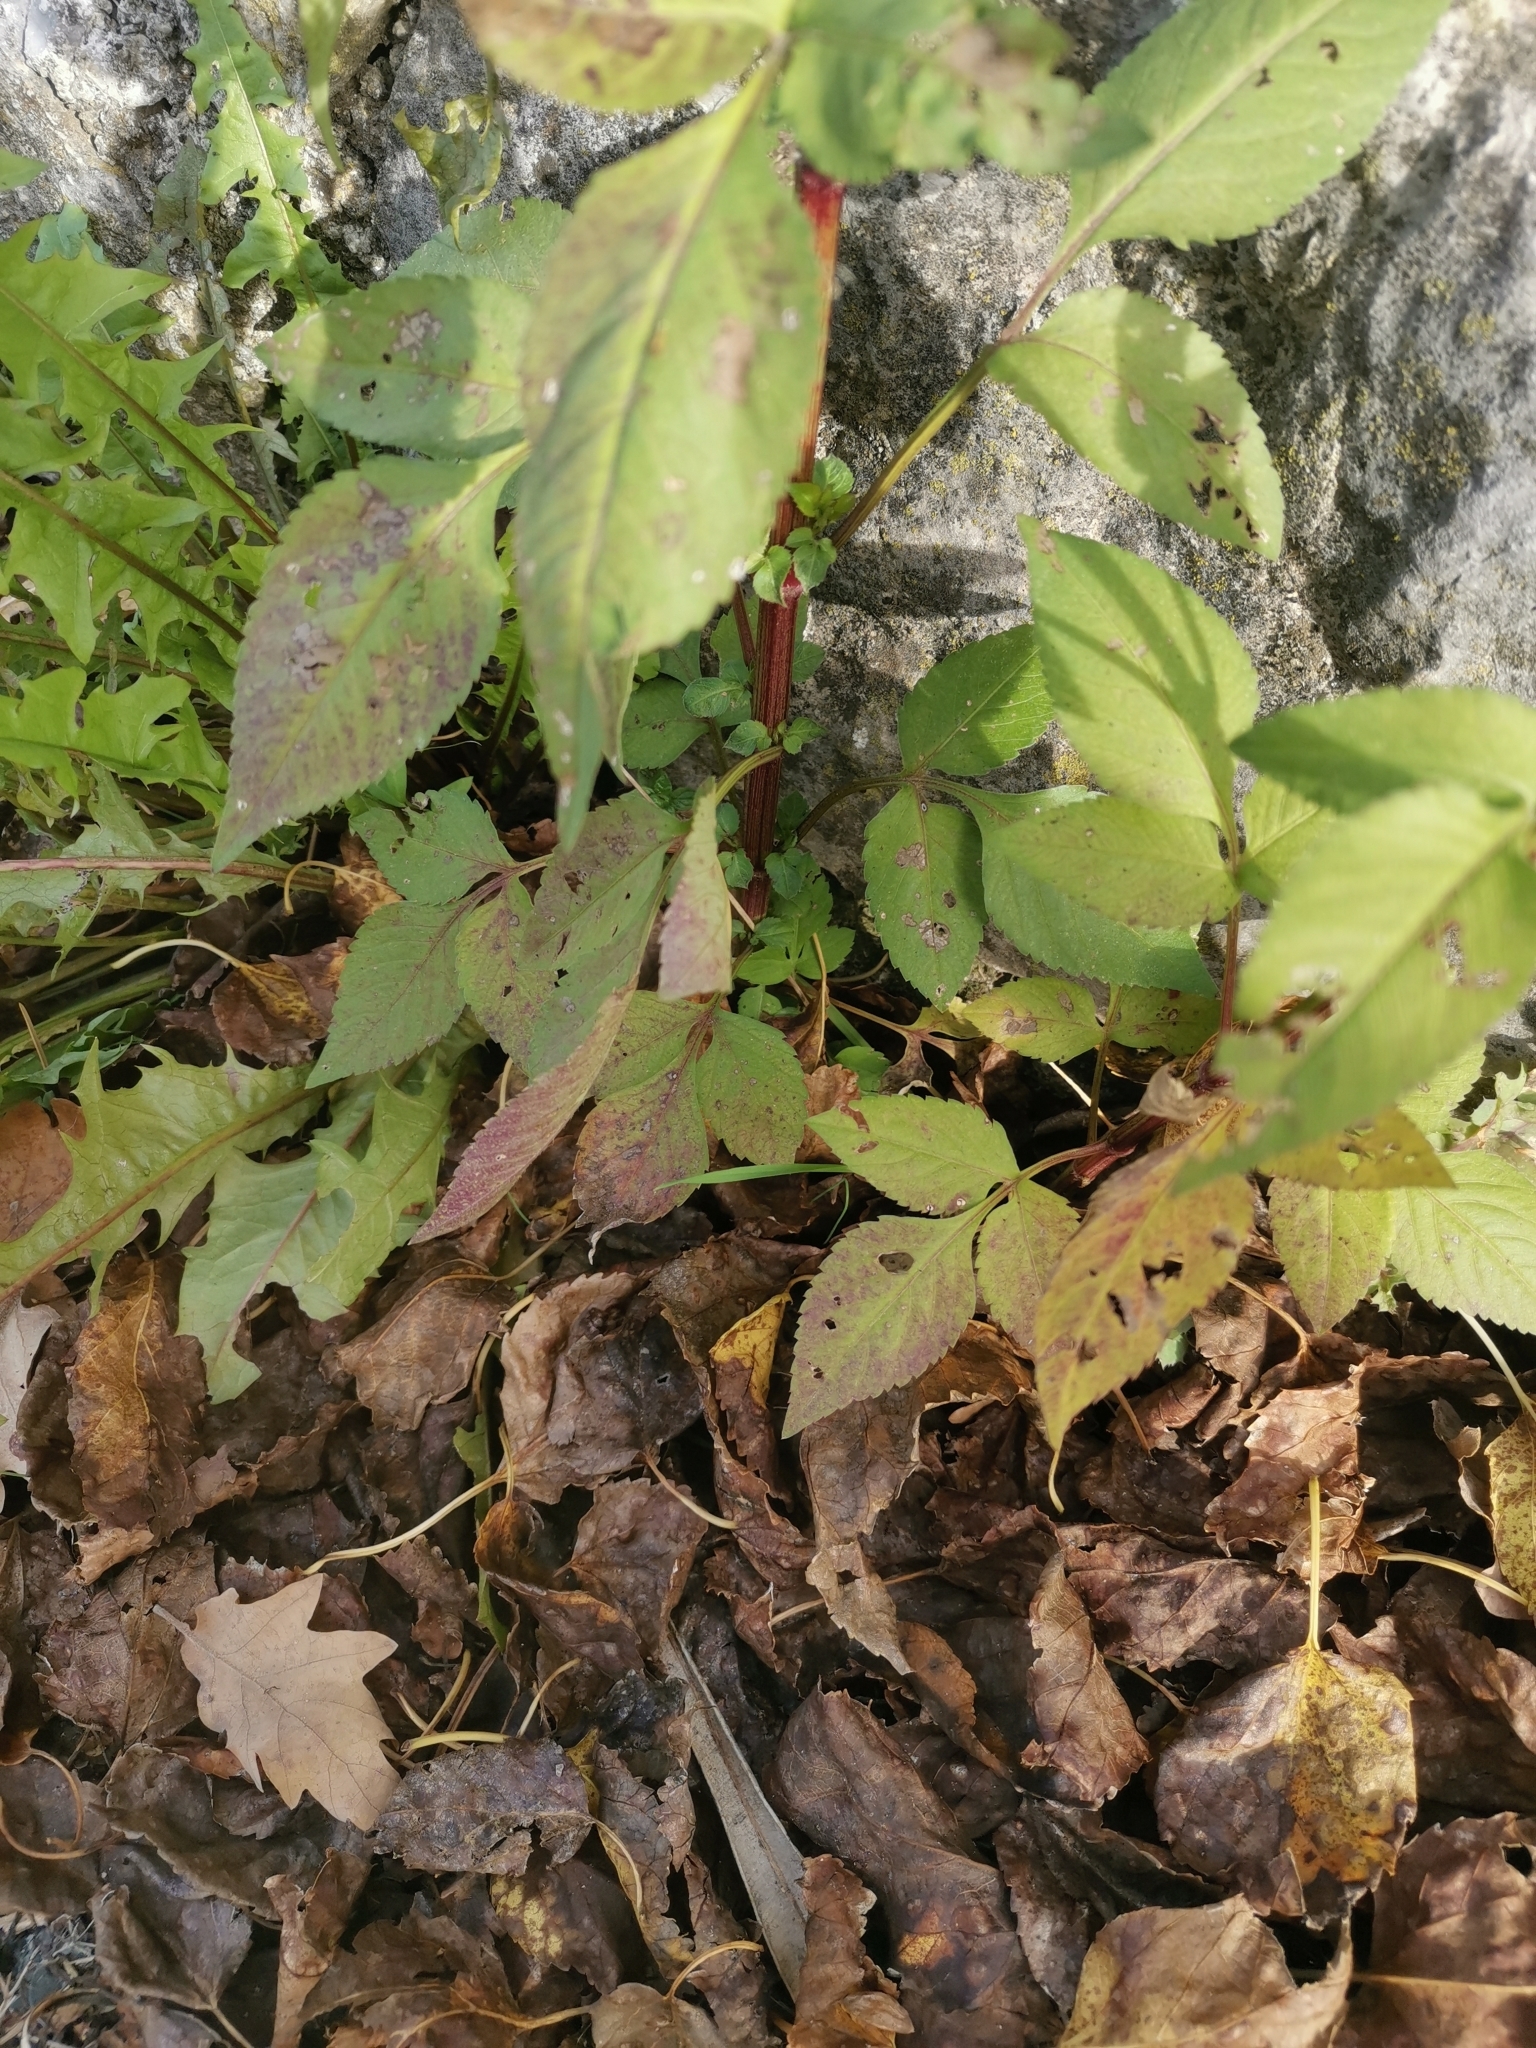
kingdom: Plantae
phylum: Tracheophyta
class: Magnoliopsida
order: Asterales
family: Asteraceae
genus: Bidens
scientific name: Bidens pilosa
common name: Black-jack
